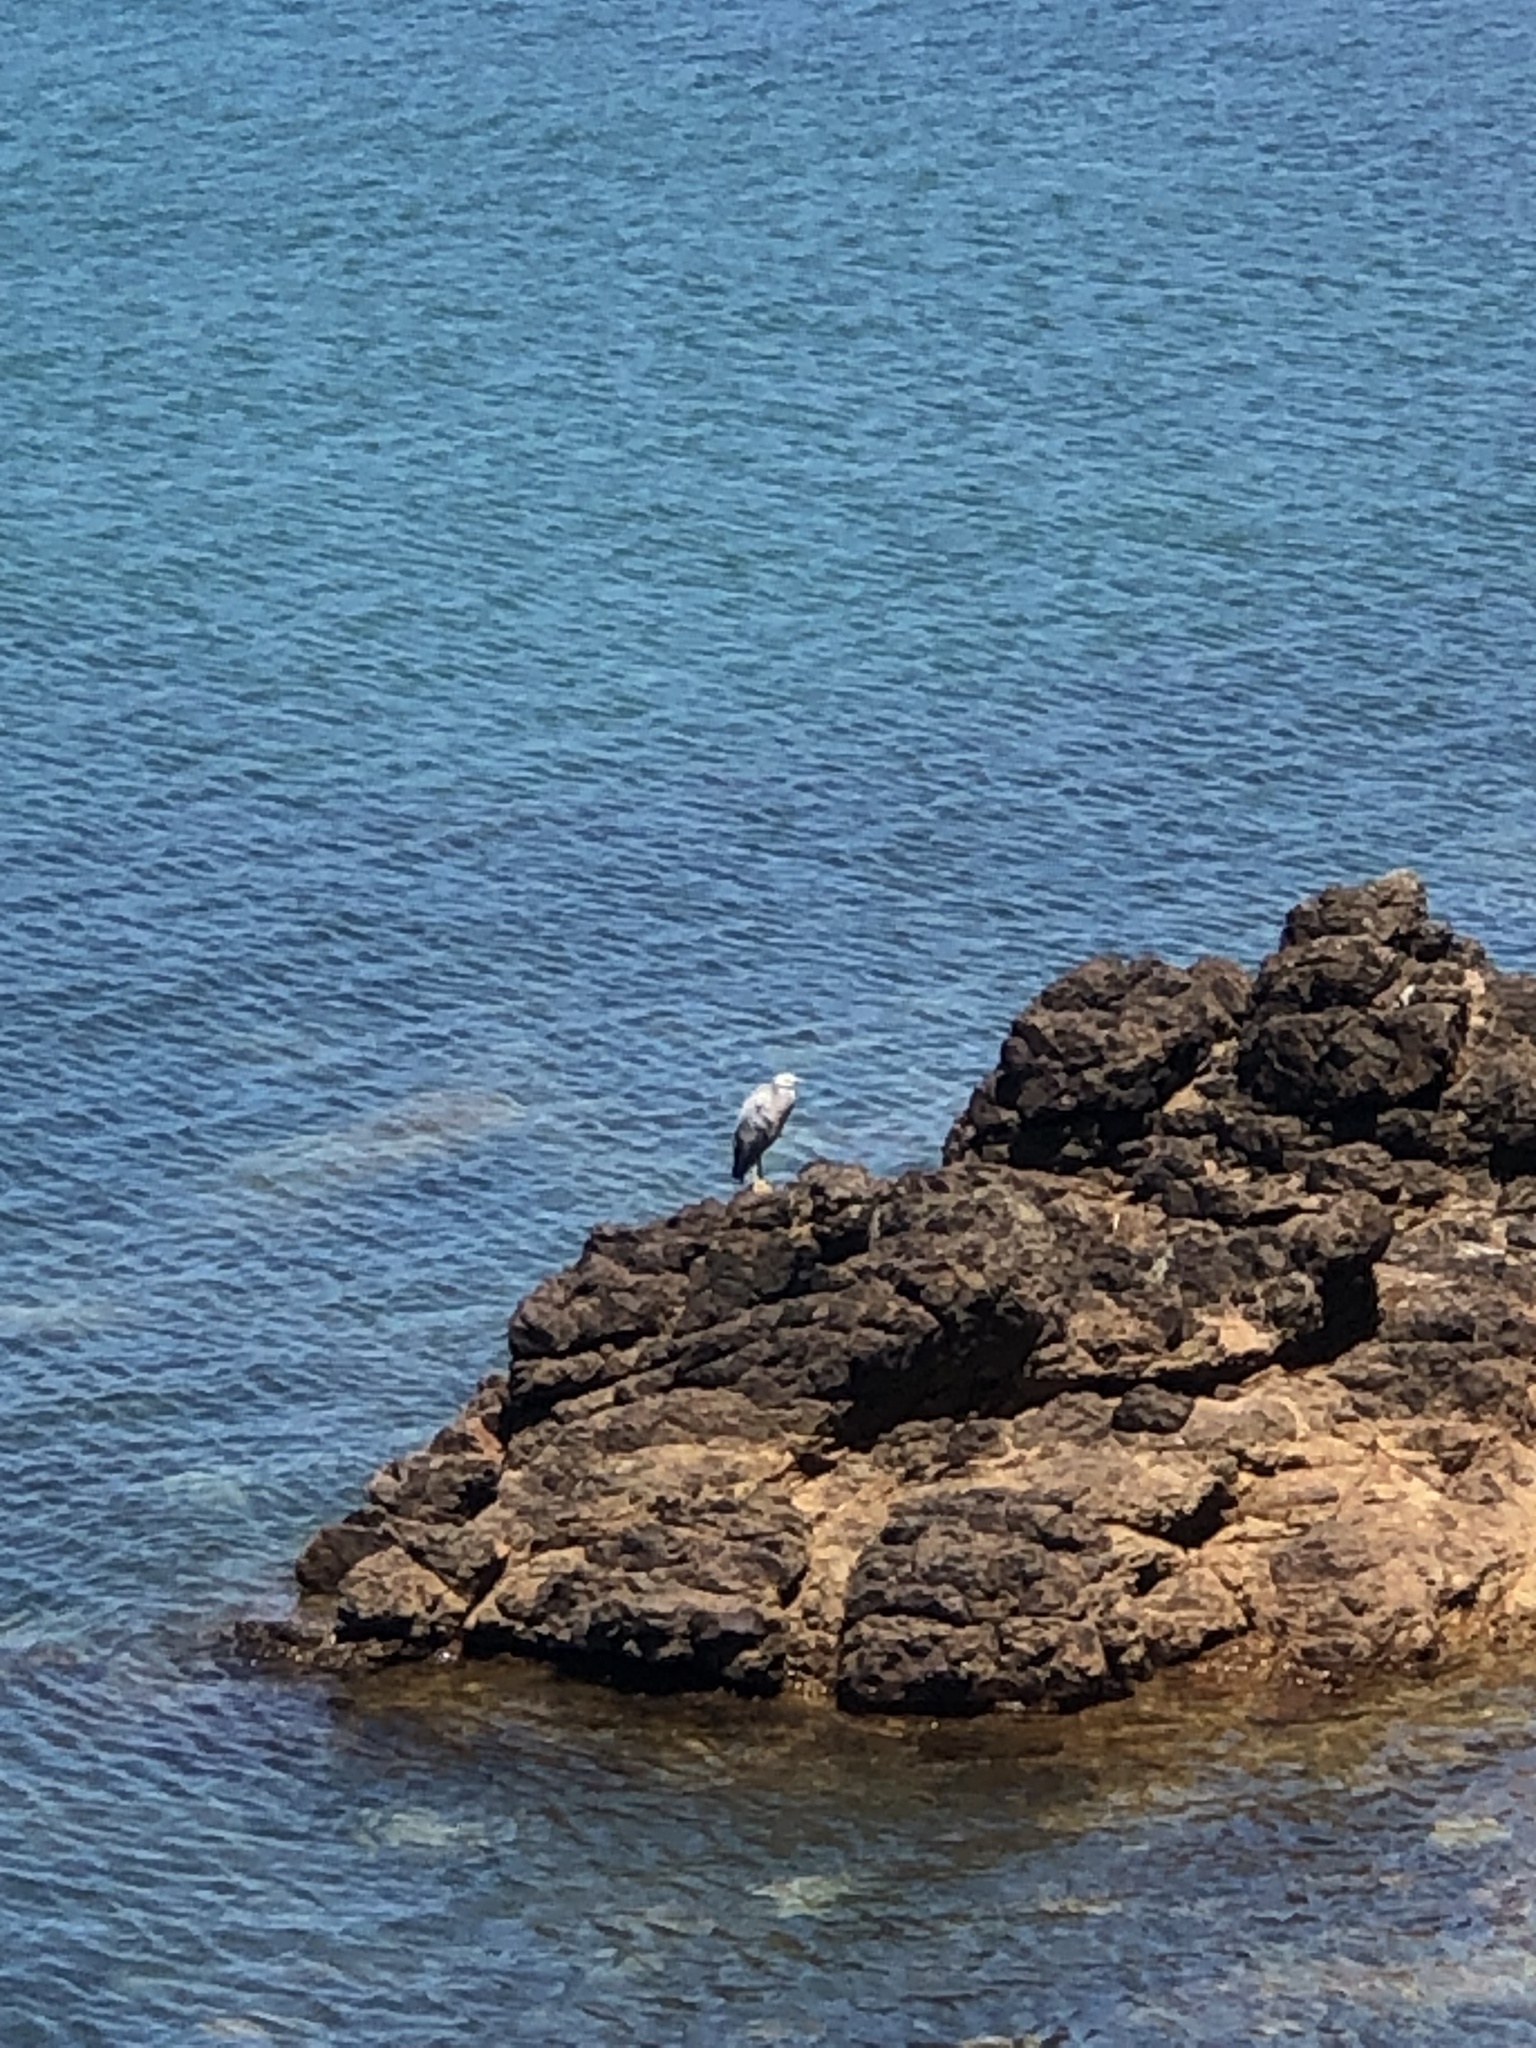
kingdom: Animalia
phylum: Chordata
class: Aves
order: Pelecaniformes
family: Ardeidae
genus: Egretta
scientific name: Egretta novaehollandiae
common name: White-faced heron
